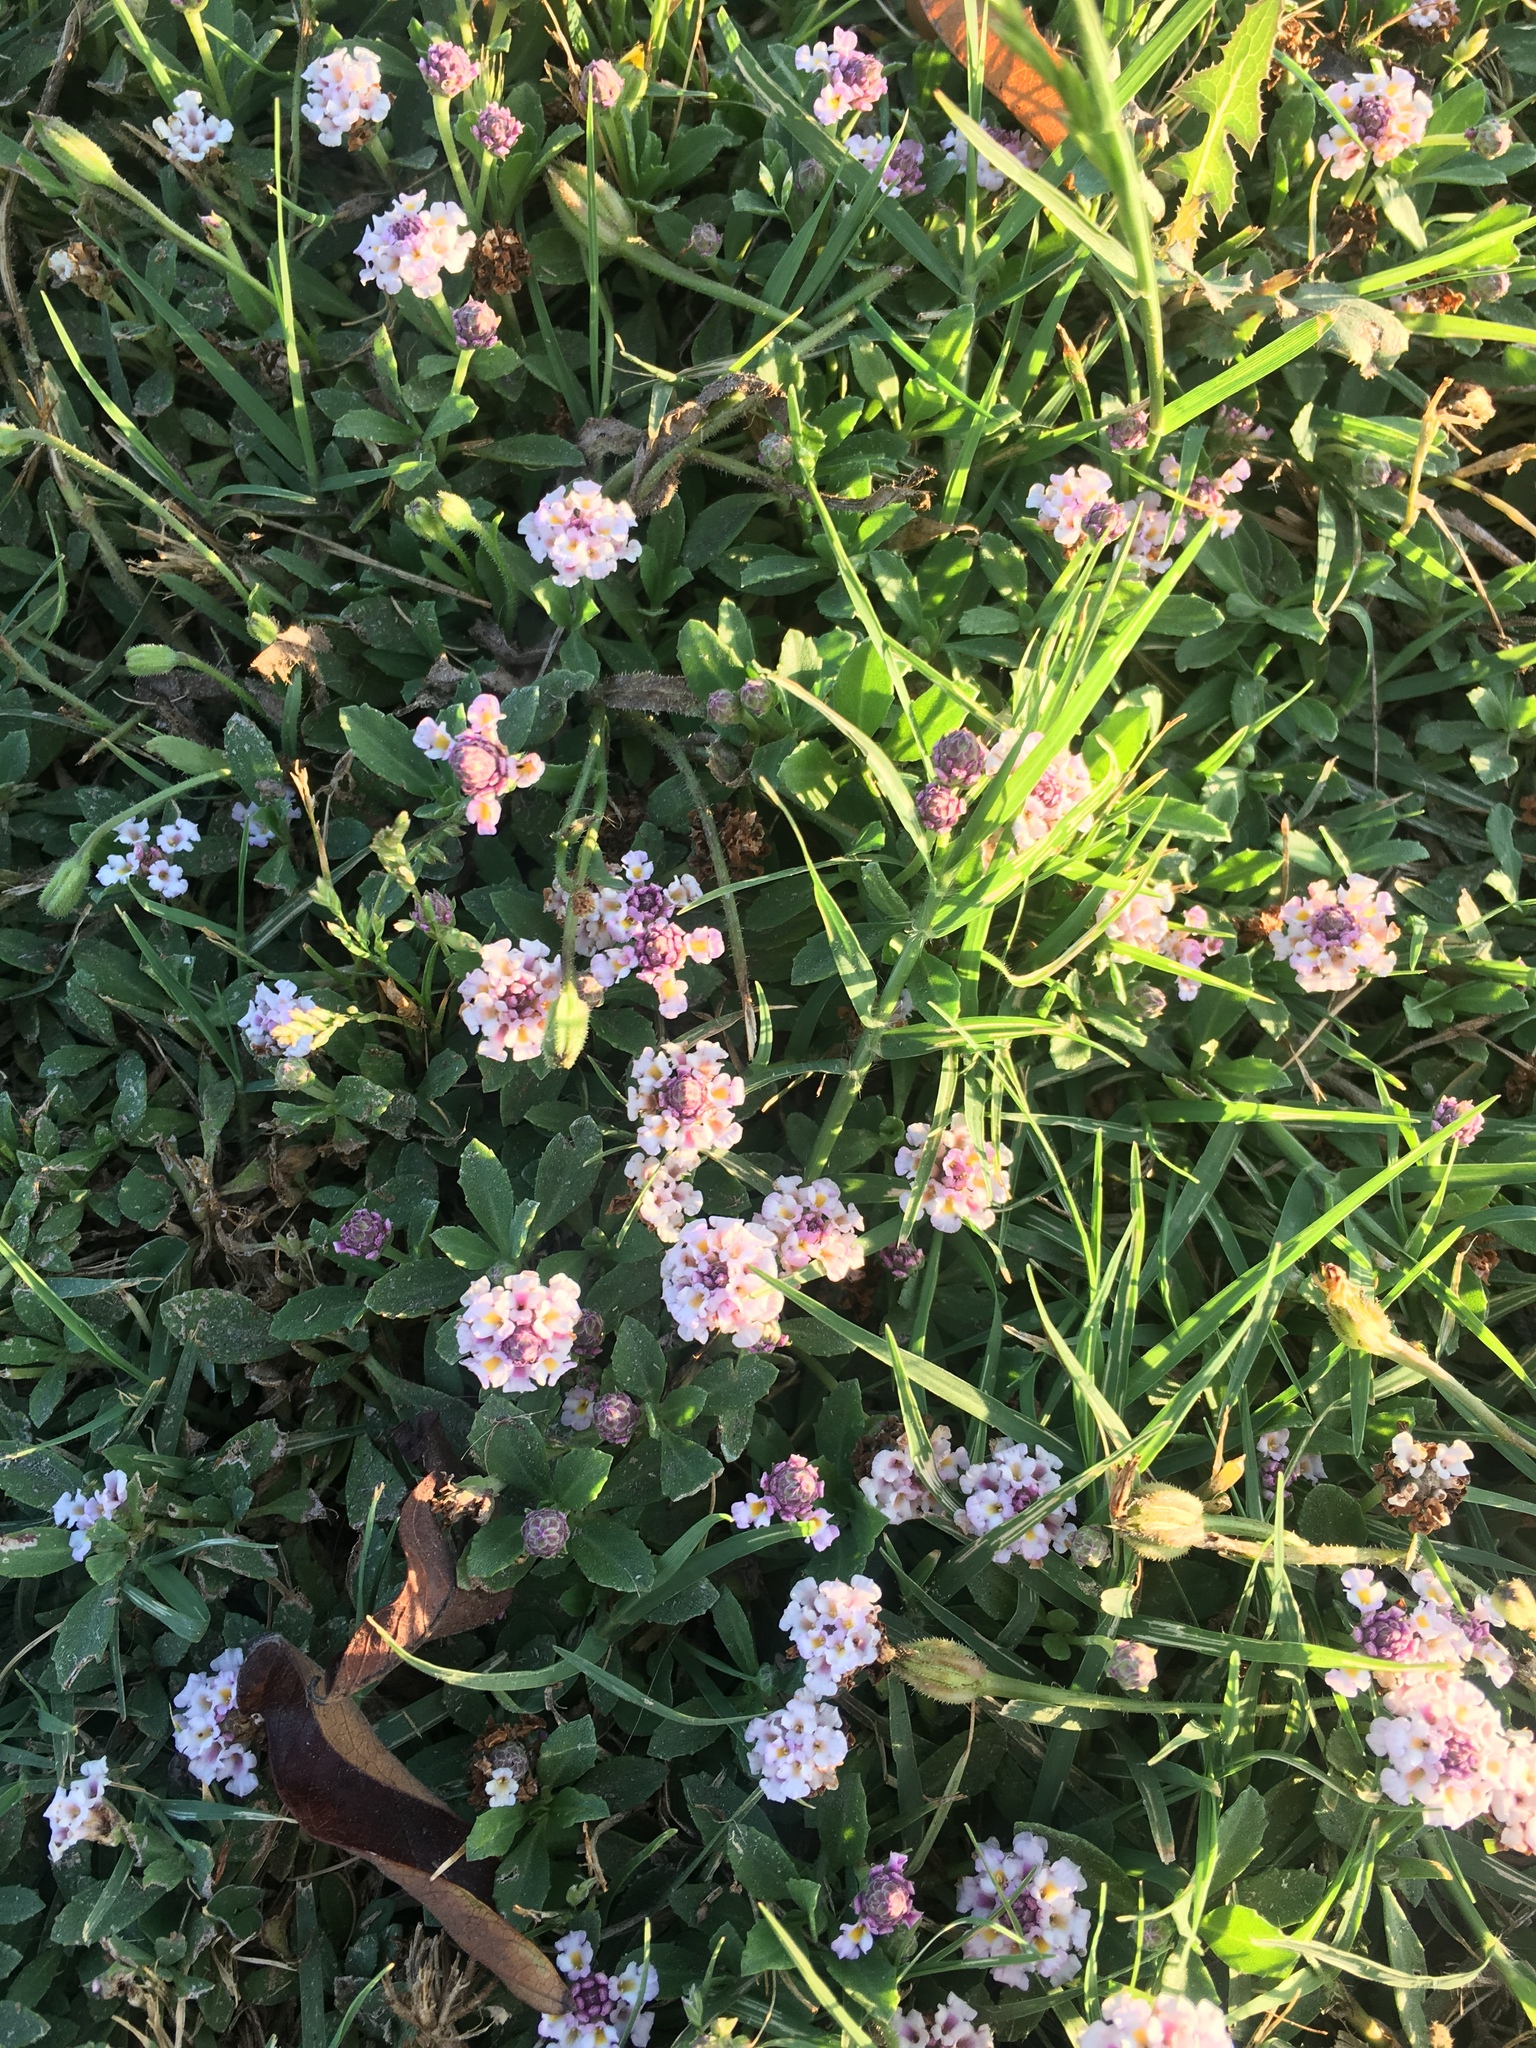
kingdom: Plantae
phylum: Tracheophyta
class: Magnoliopsida
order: Lamiales
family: Verbenaceae
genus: Phyla
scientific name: Phyla nodiflora
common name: Frogfruit
